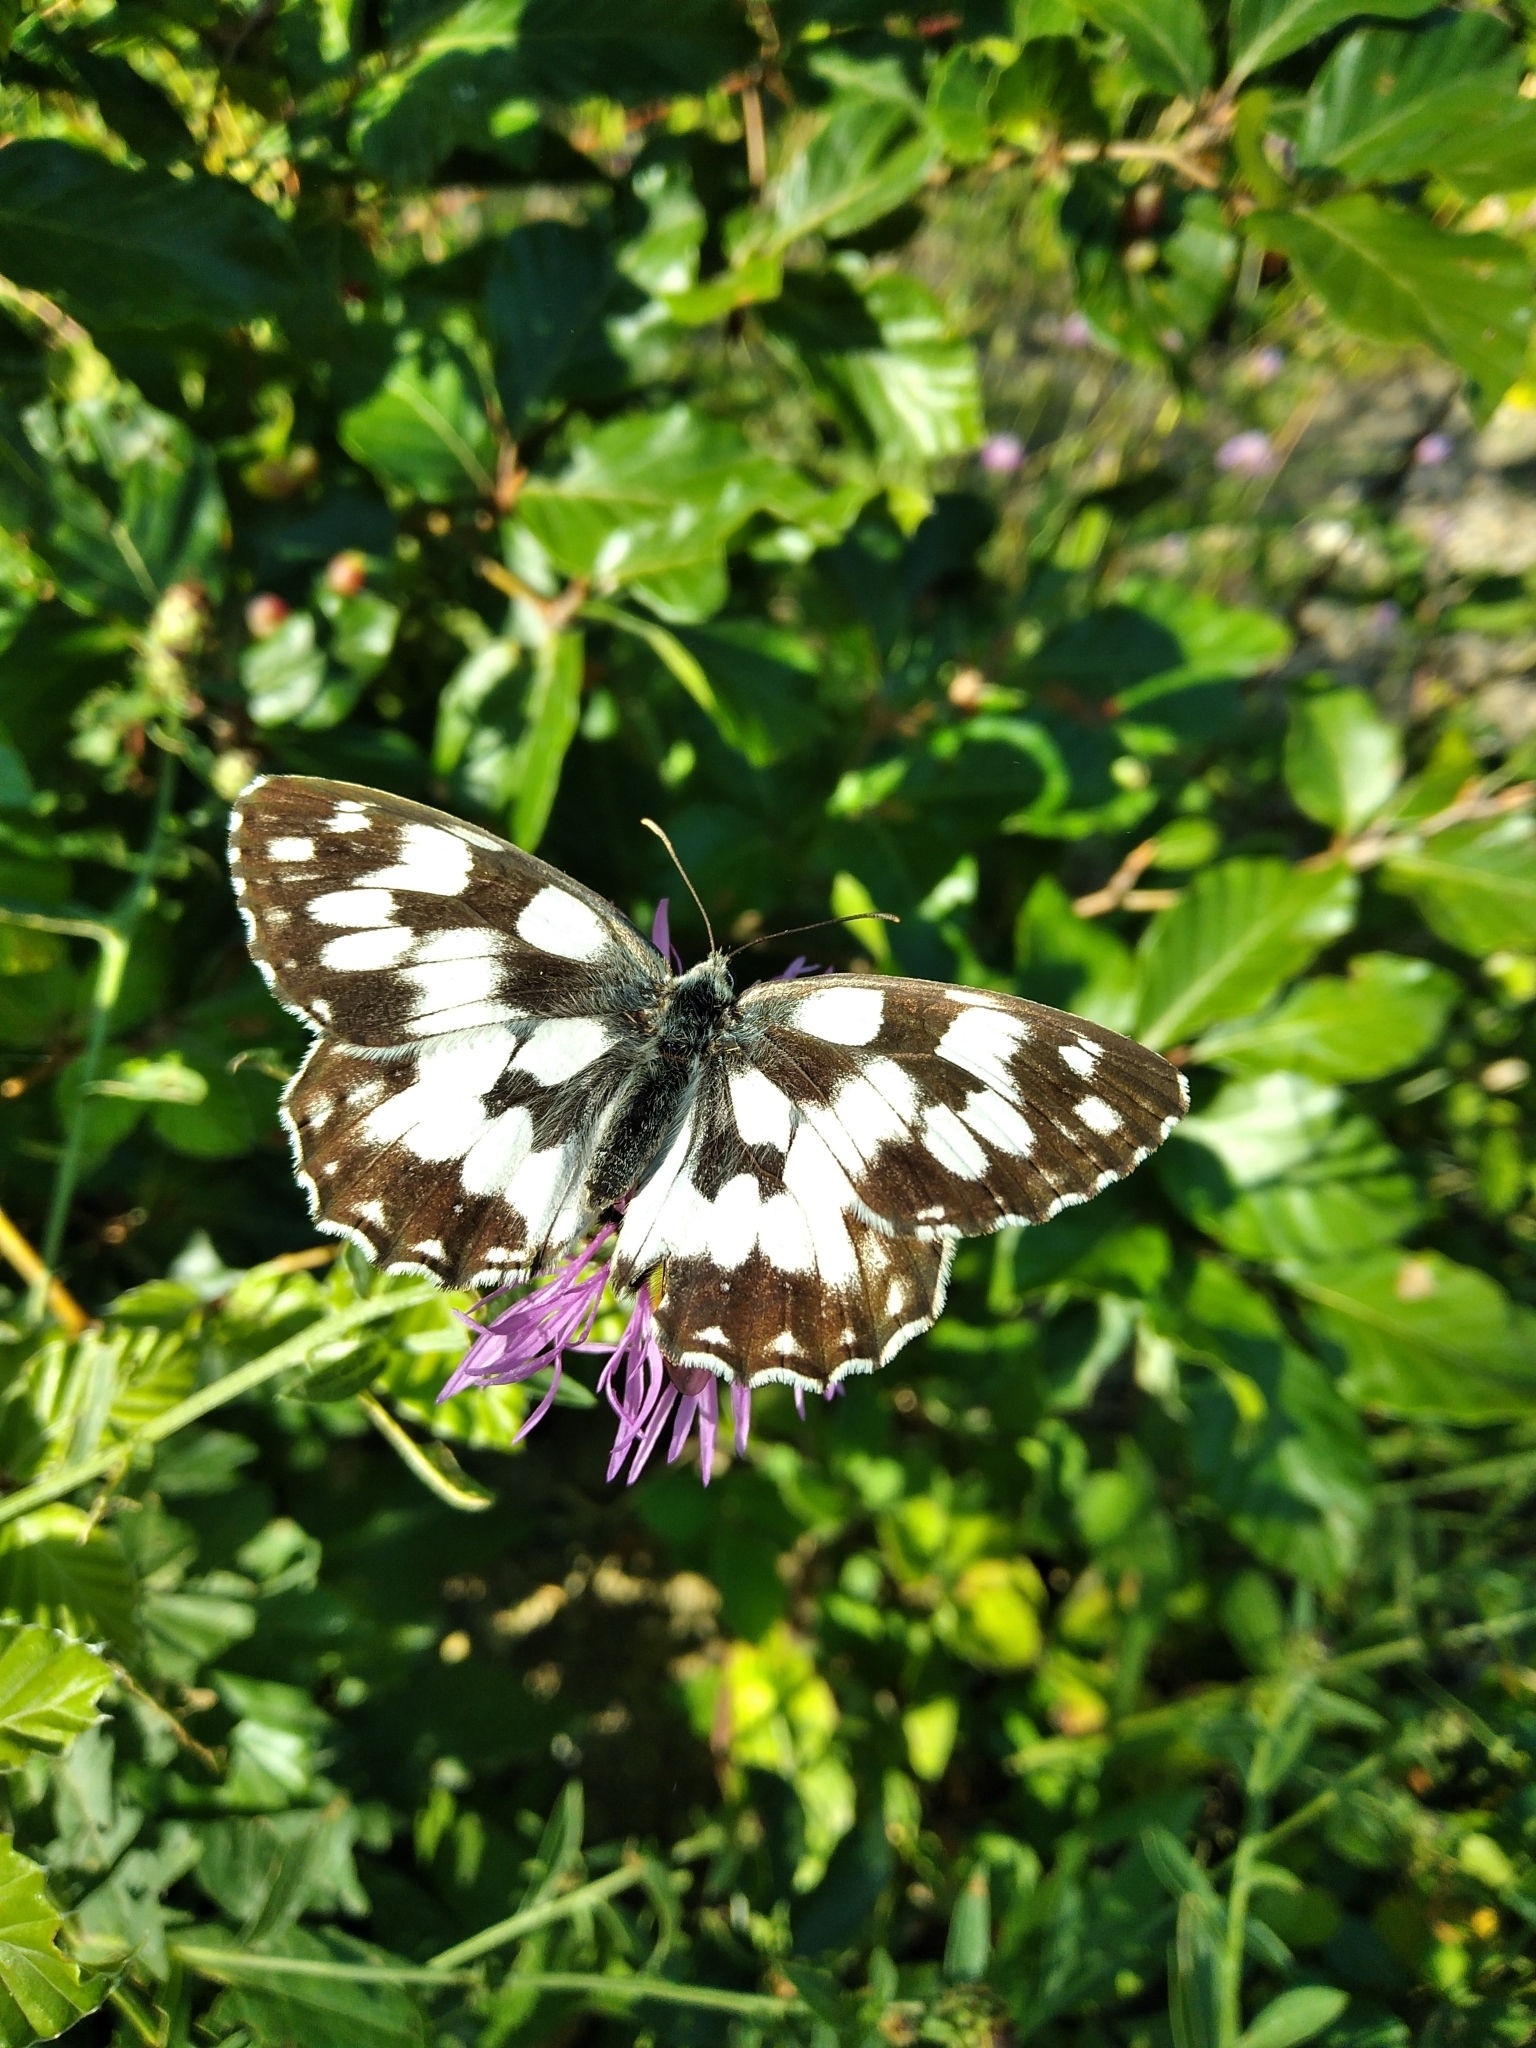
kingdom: Animalia
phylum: Arthropoda
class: Insecta
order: Lepidoptera
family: Nymphalidae
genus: Melanargia
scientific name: Melanargia galathea
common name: Marbled white
